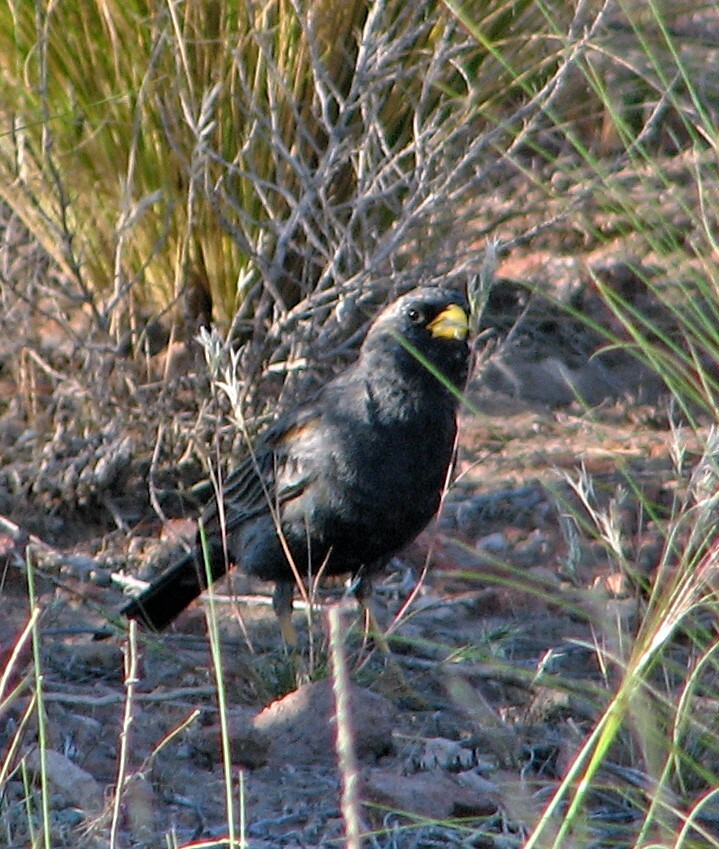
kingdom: Animalia
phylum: Chordata
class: Aves
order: Passeriformes
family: Thraupidae
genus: Porphyrospiza
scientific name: Porphyrospiza carbonaria
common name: Carbon finch
